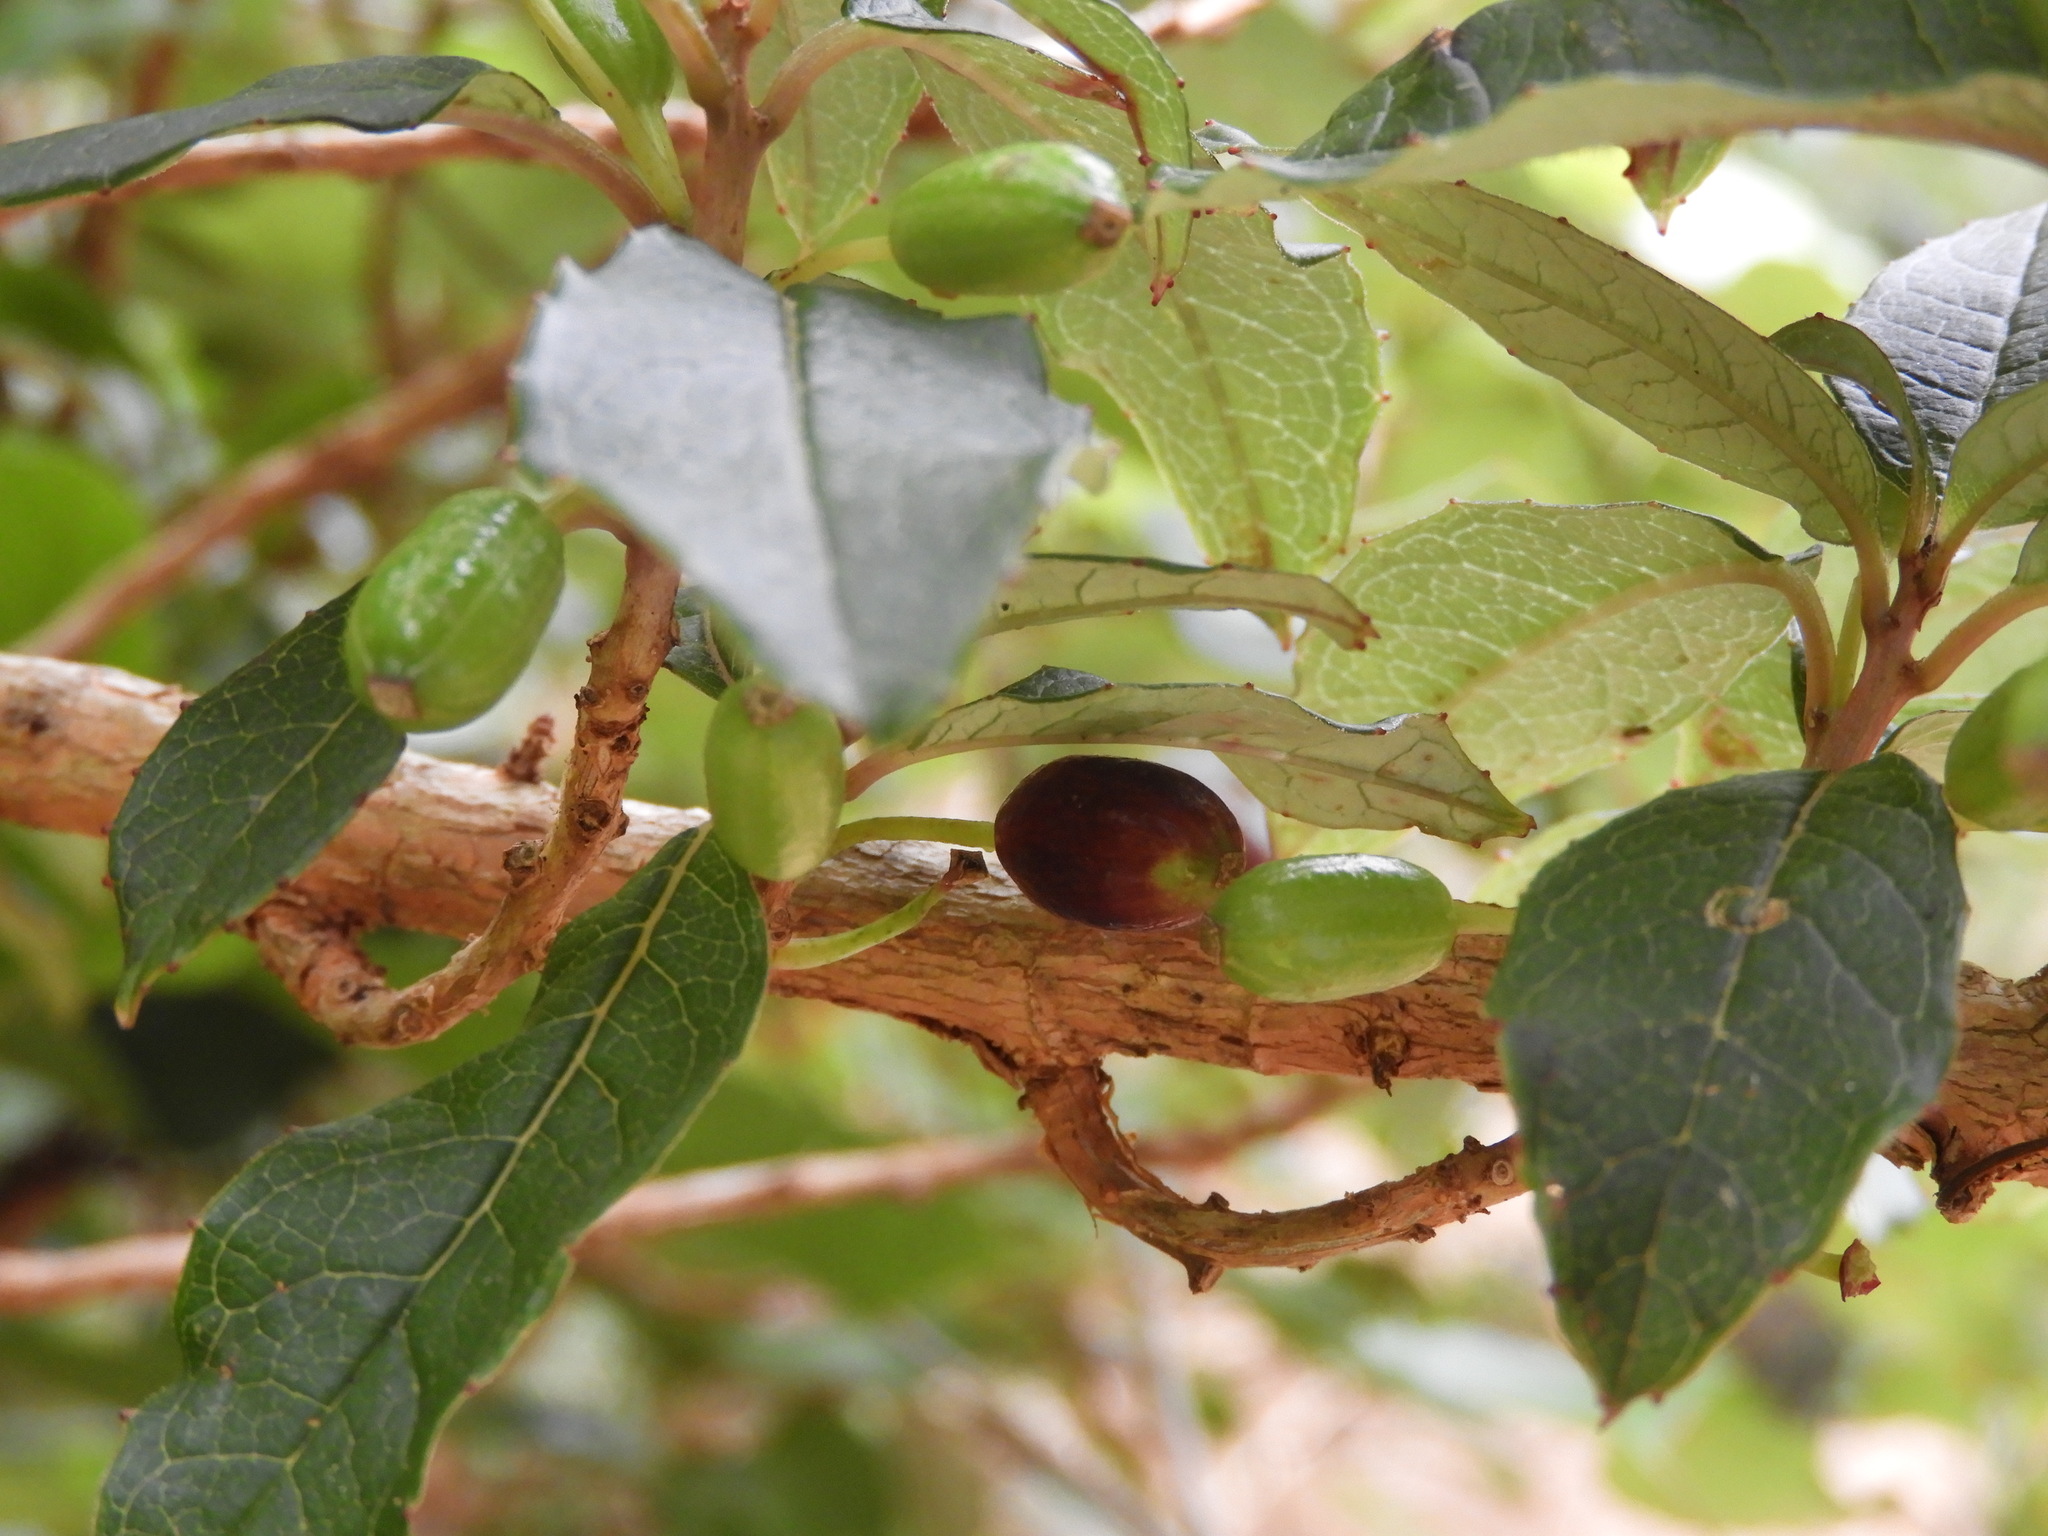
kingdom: Plantae
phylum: Tracheophyta
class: Magnoliopsida
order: Myrtales
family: Onagraceae
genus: Fuchsia
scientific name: Fuchsia excorticata
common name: Tree fuchsia
